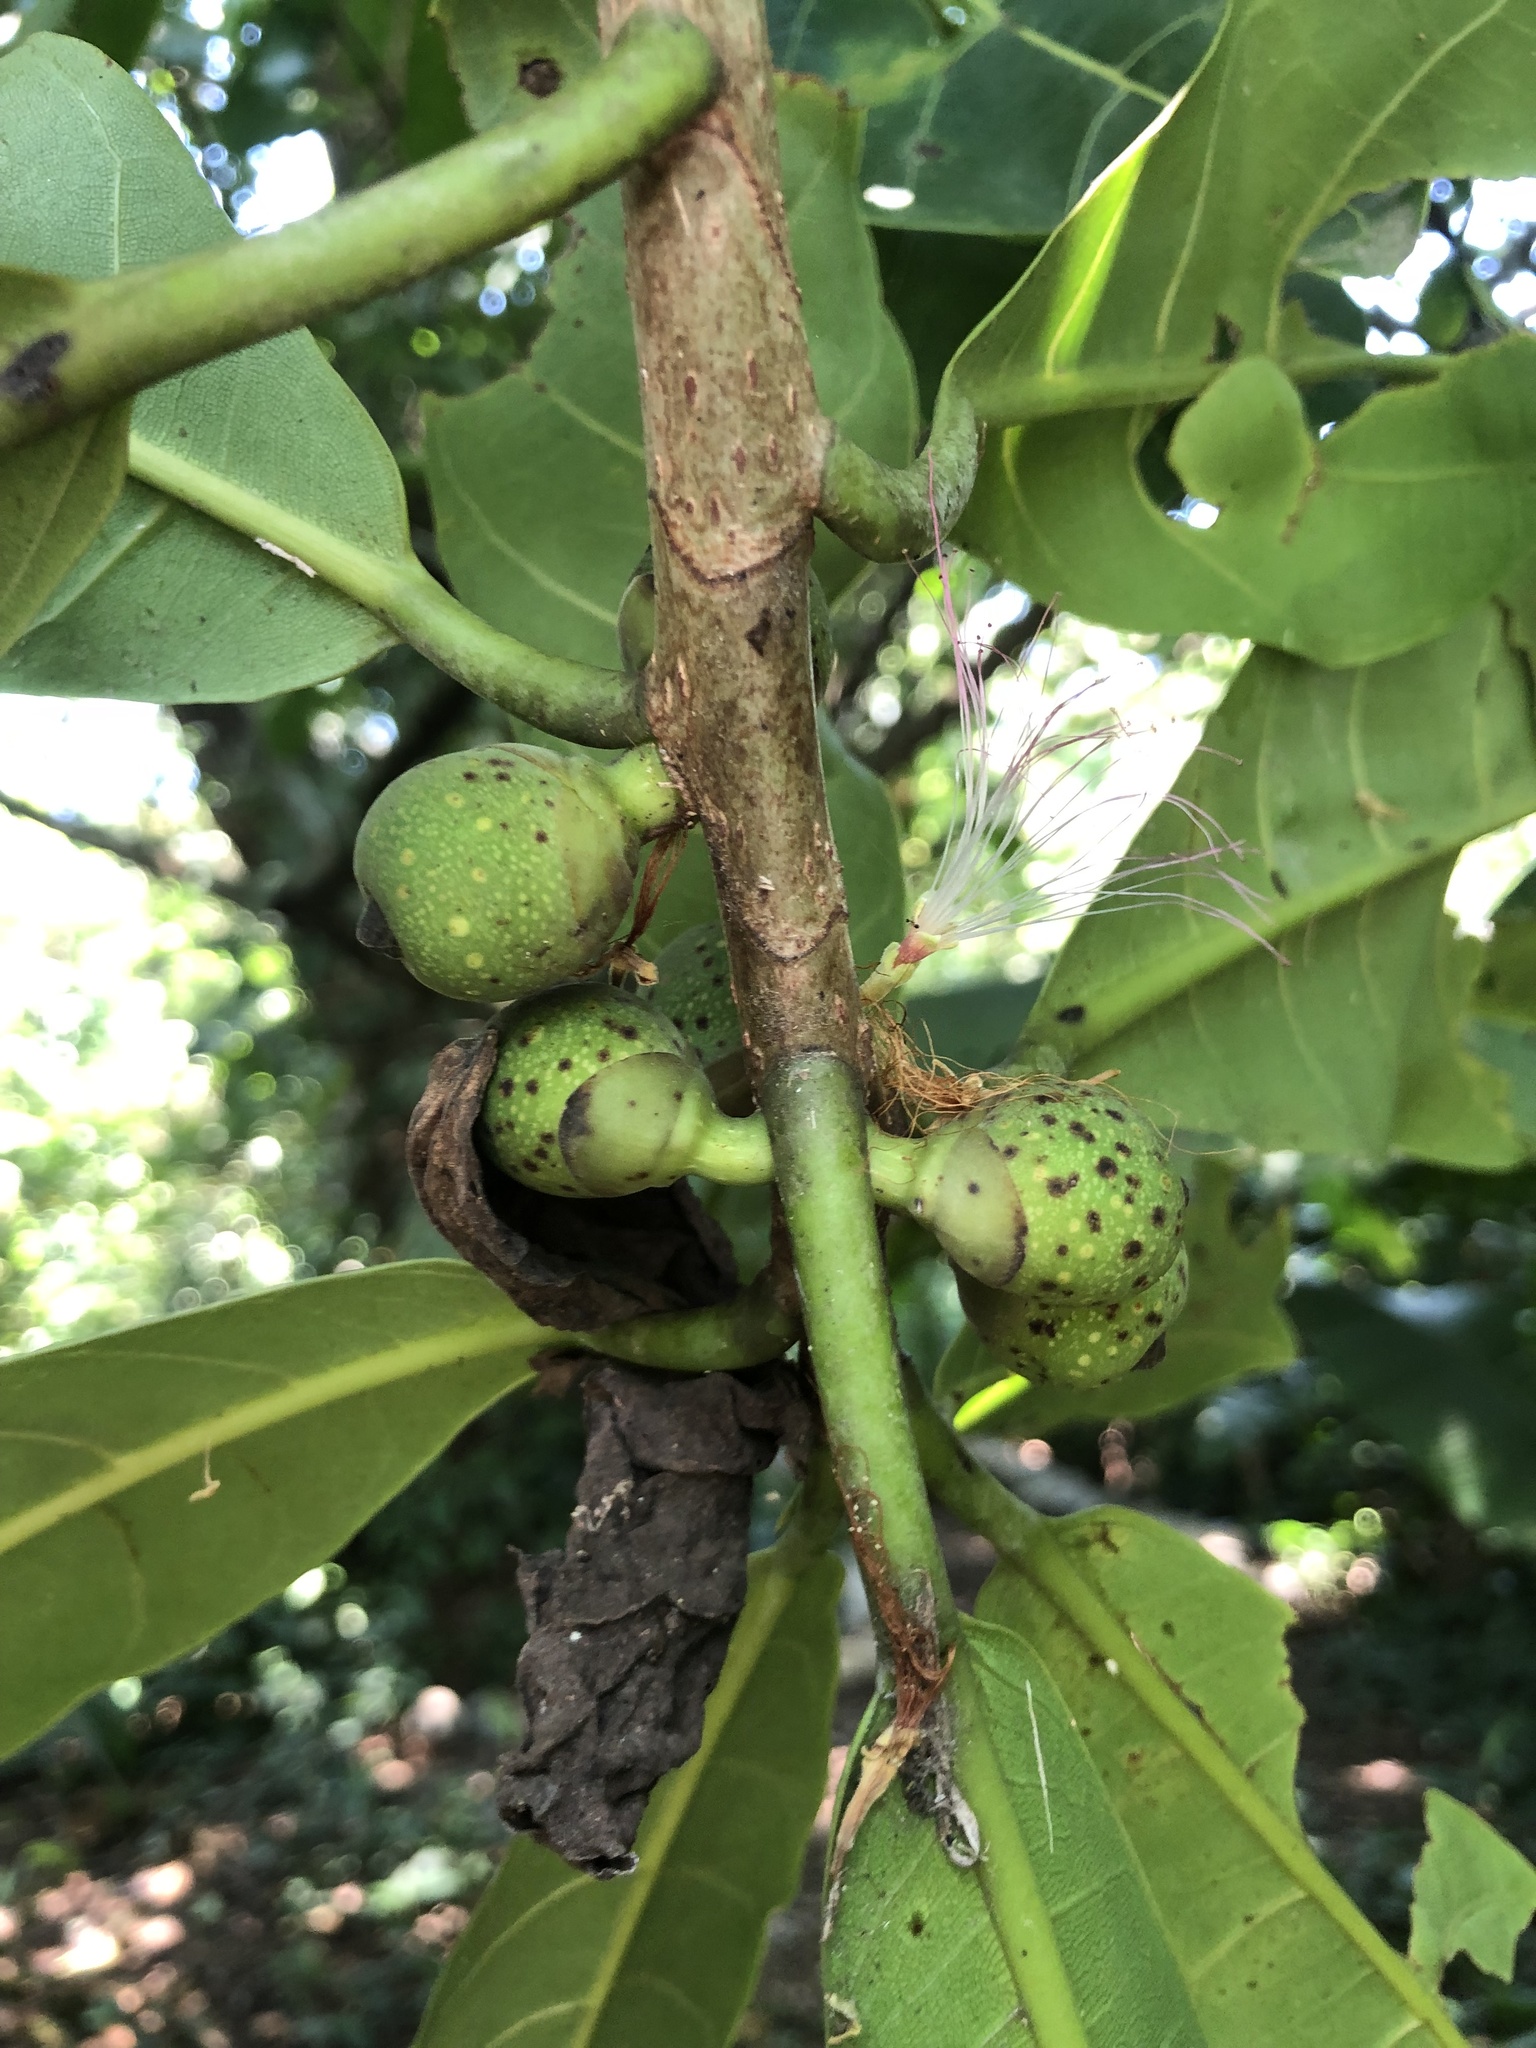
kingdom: Plantae
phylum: Tracheophyta
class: Magnoliopsida
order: Rosales
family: Moraceae
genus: Ficus
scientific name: Ficus obtusifolia
